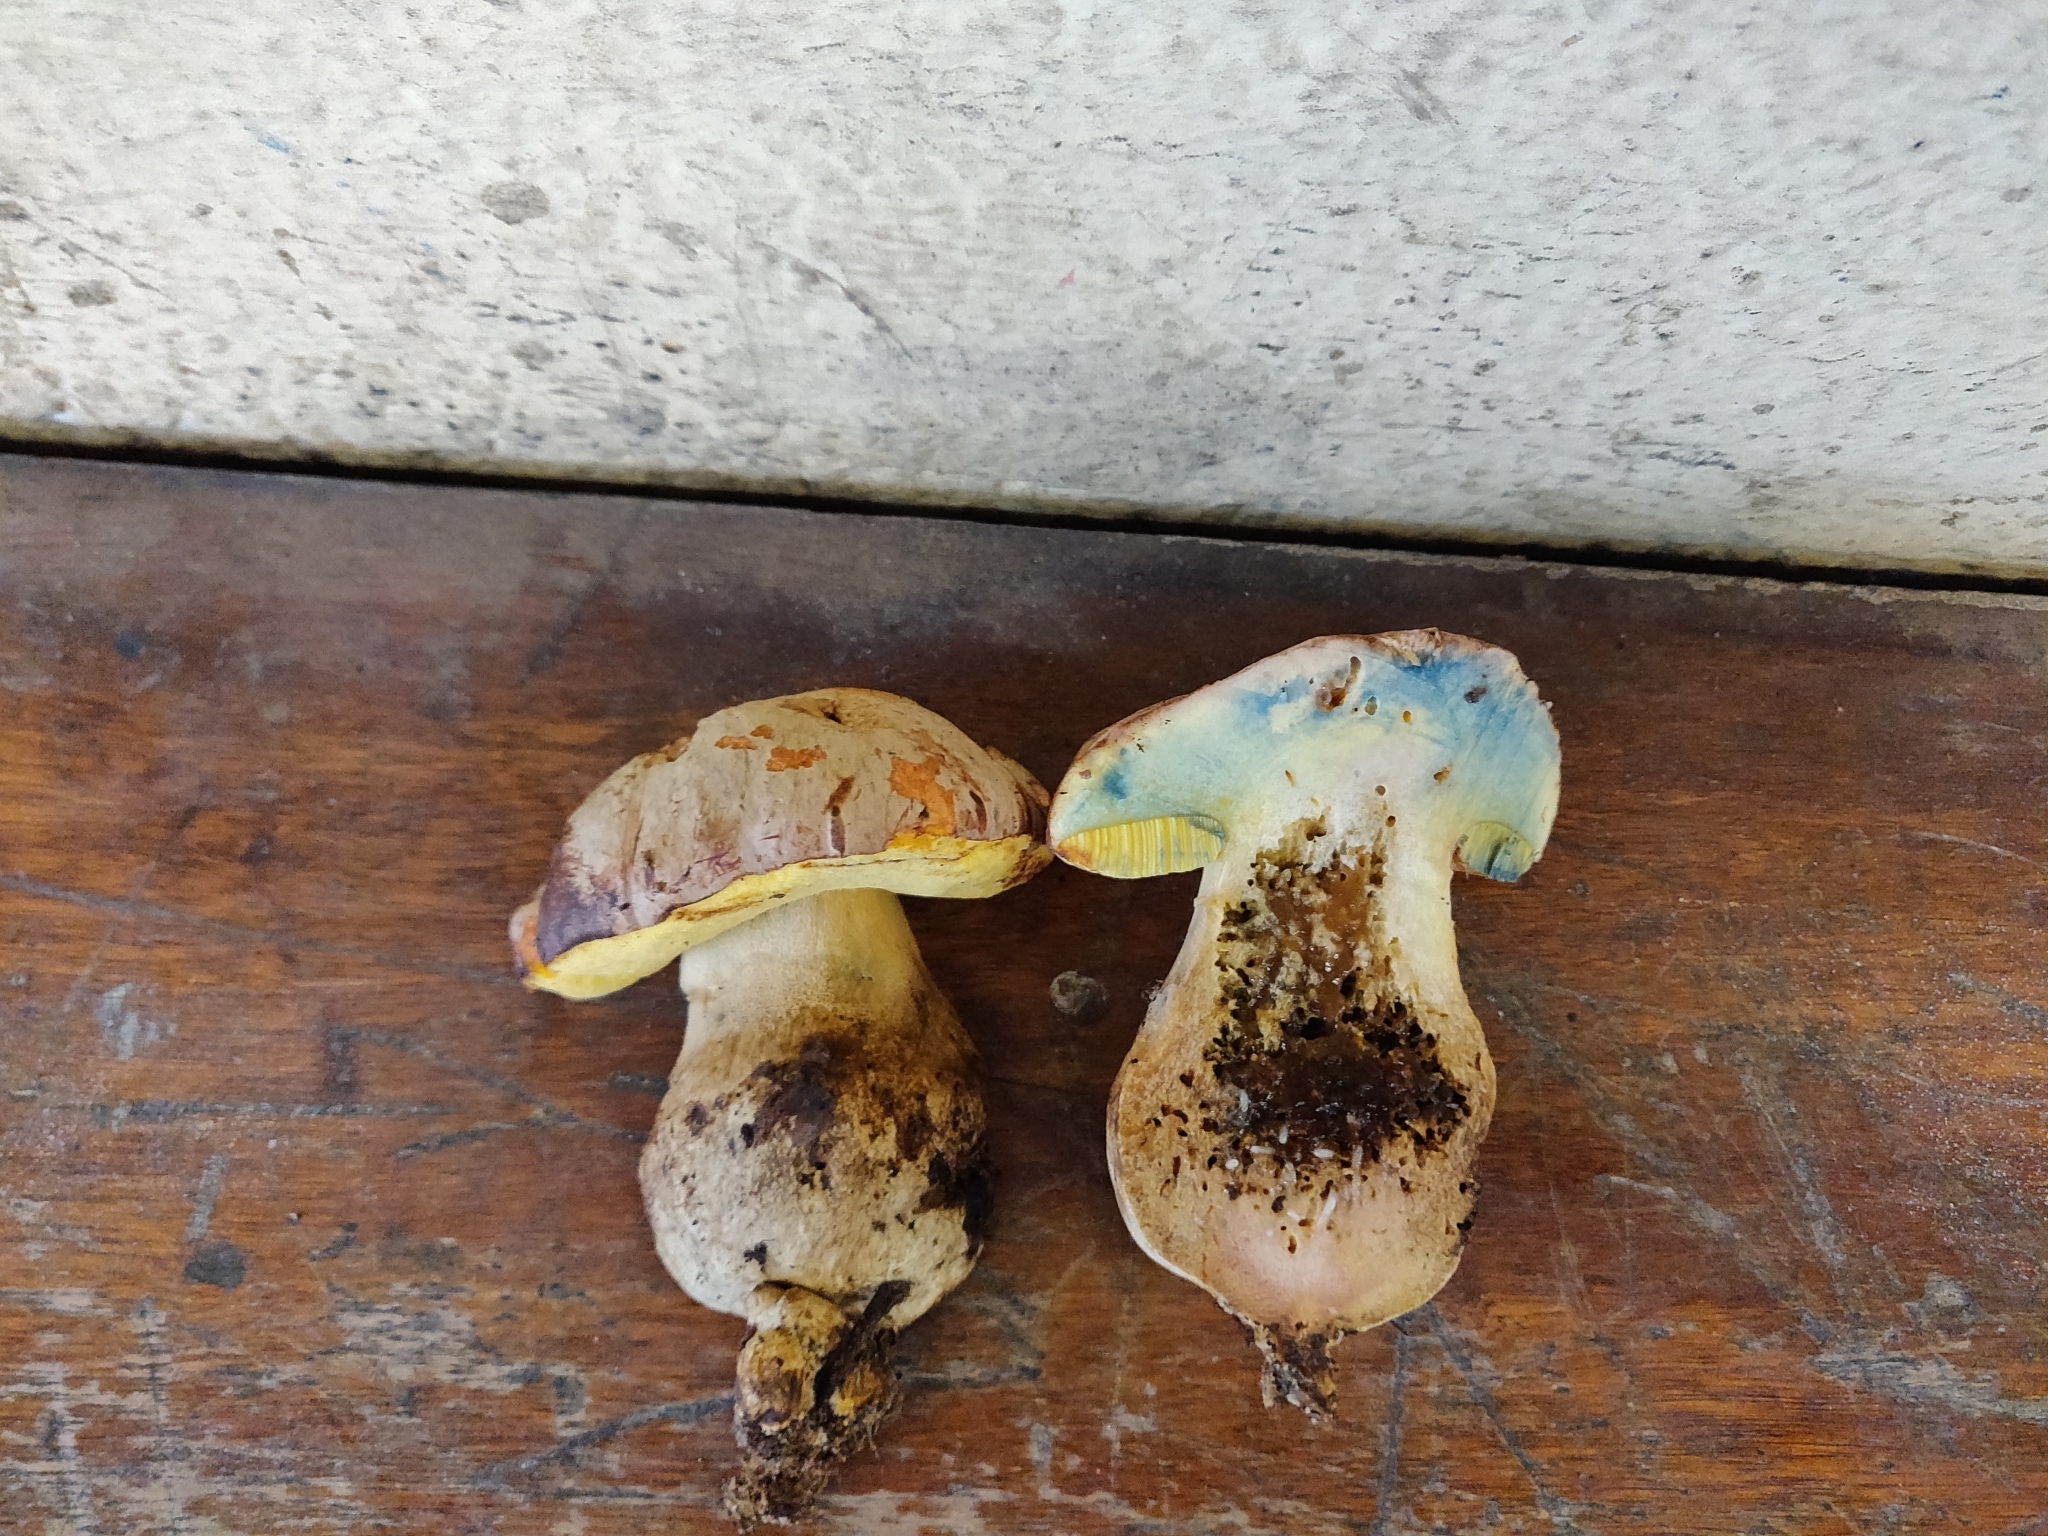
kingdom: Fungi
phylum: Basidiomycota
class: Agaricomycetes
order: Boletales
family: Boletaceae
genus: Butyriboletus
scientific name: Butyriboletus fechtneri
